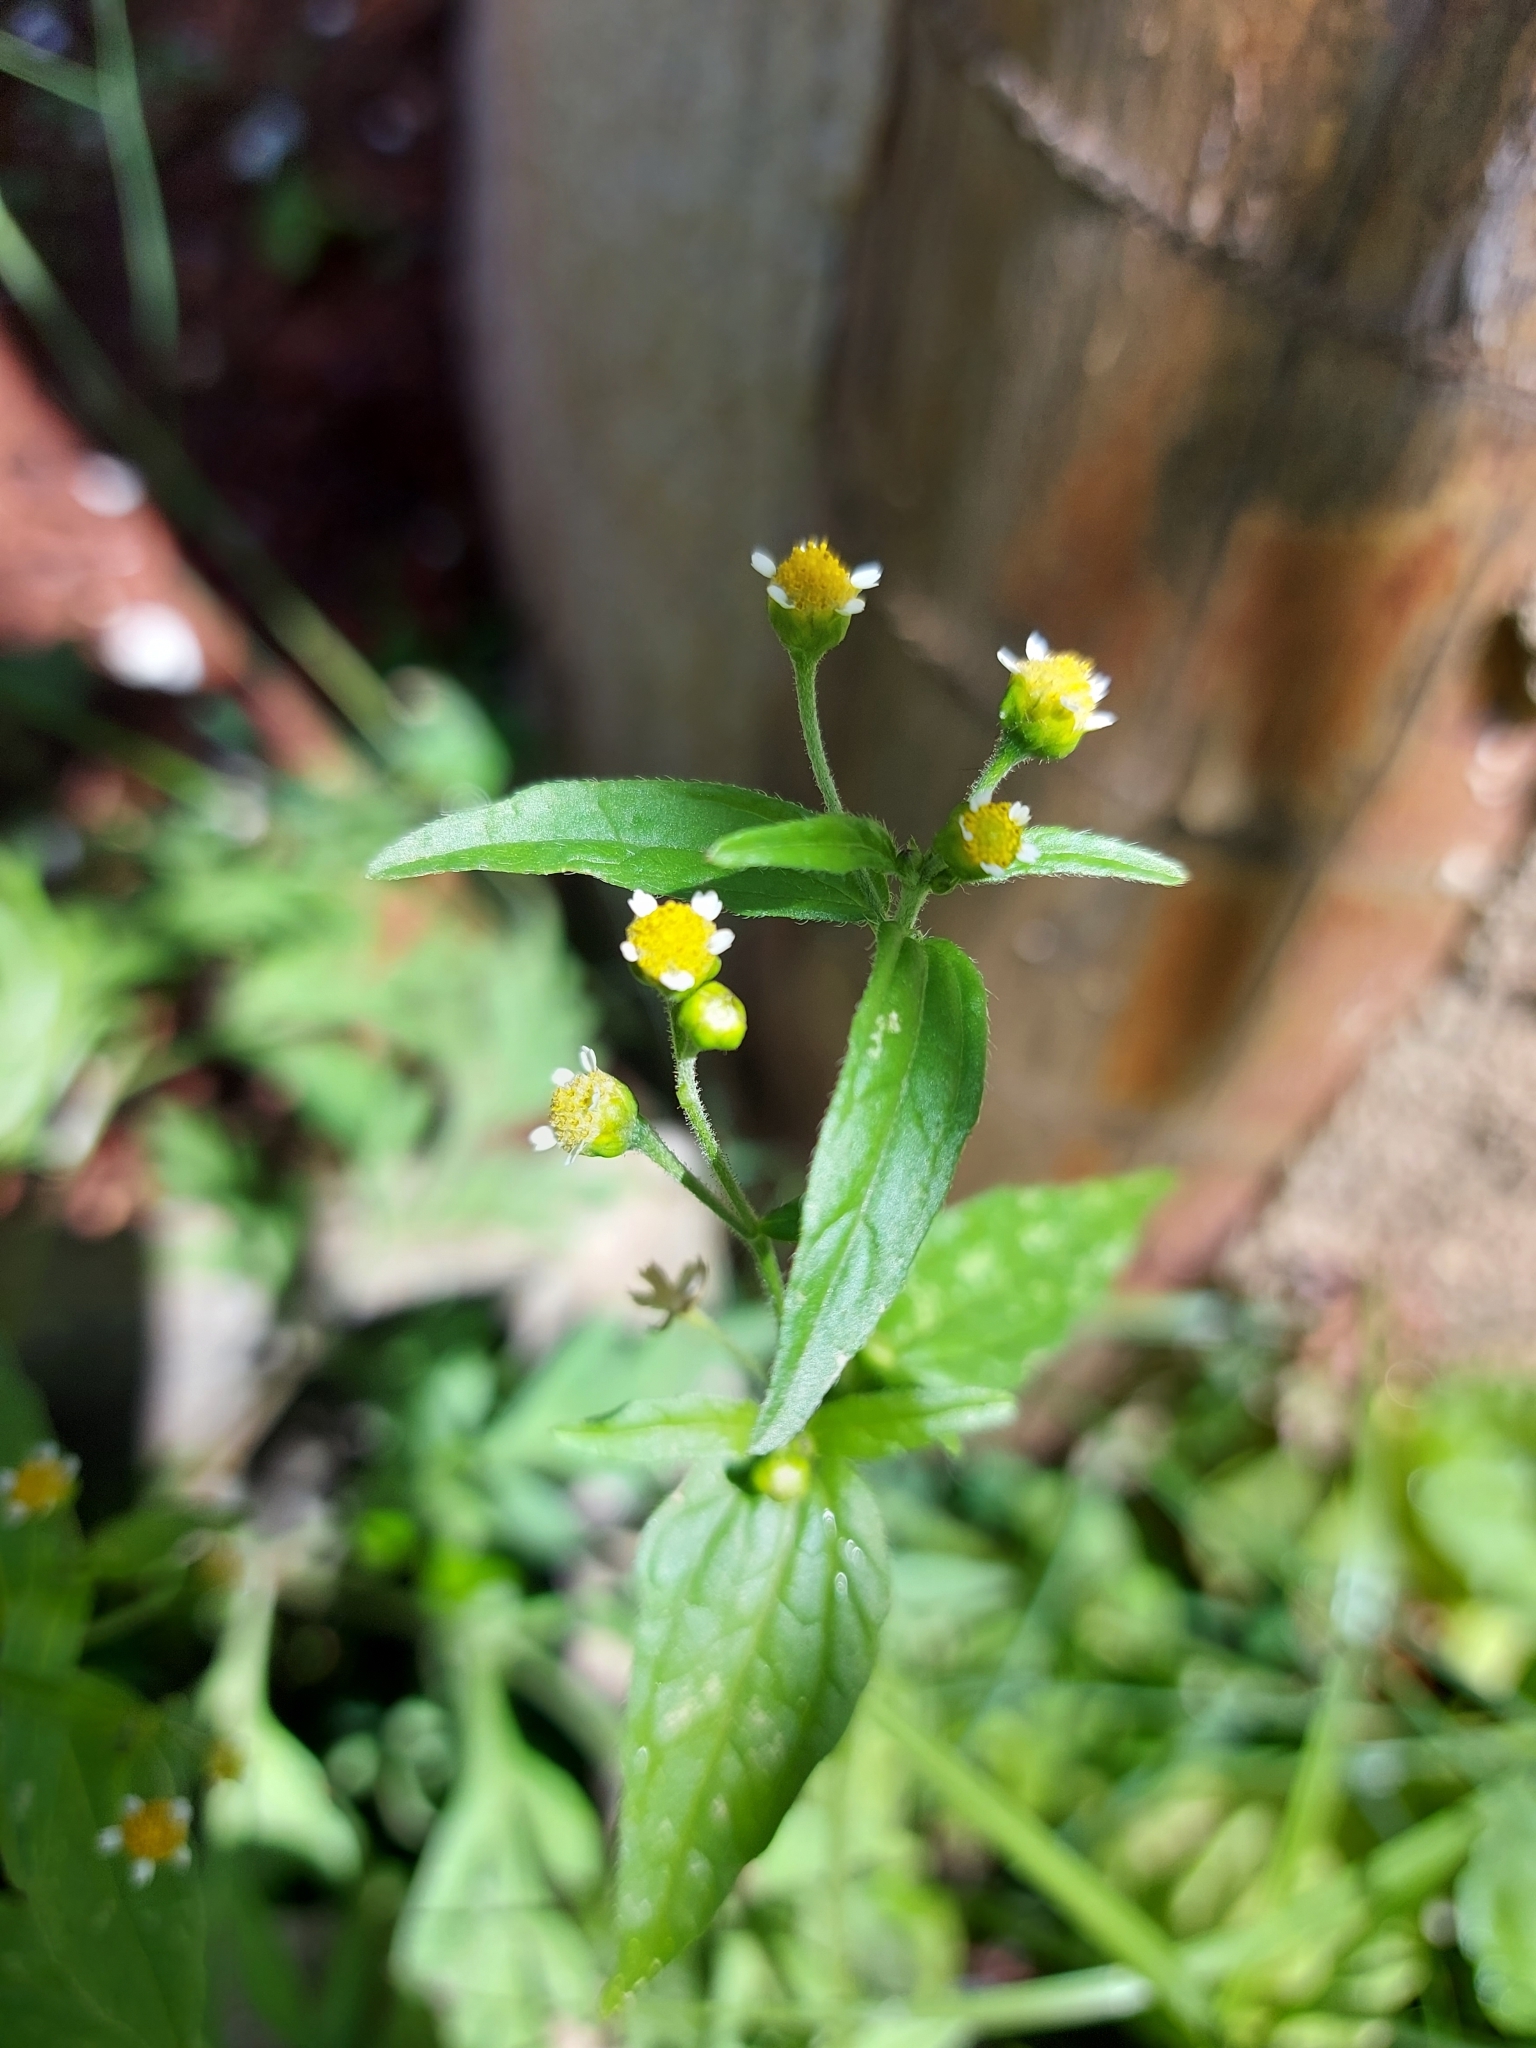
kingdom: Plantae
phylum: Tracheophyta
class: Magnoliopsida
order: Asterales
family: Asteraceae
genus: Galinsoga
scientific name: Galinsoga parviflora
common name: Gallant soldier
